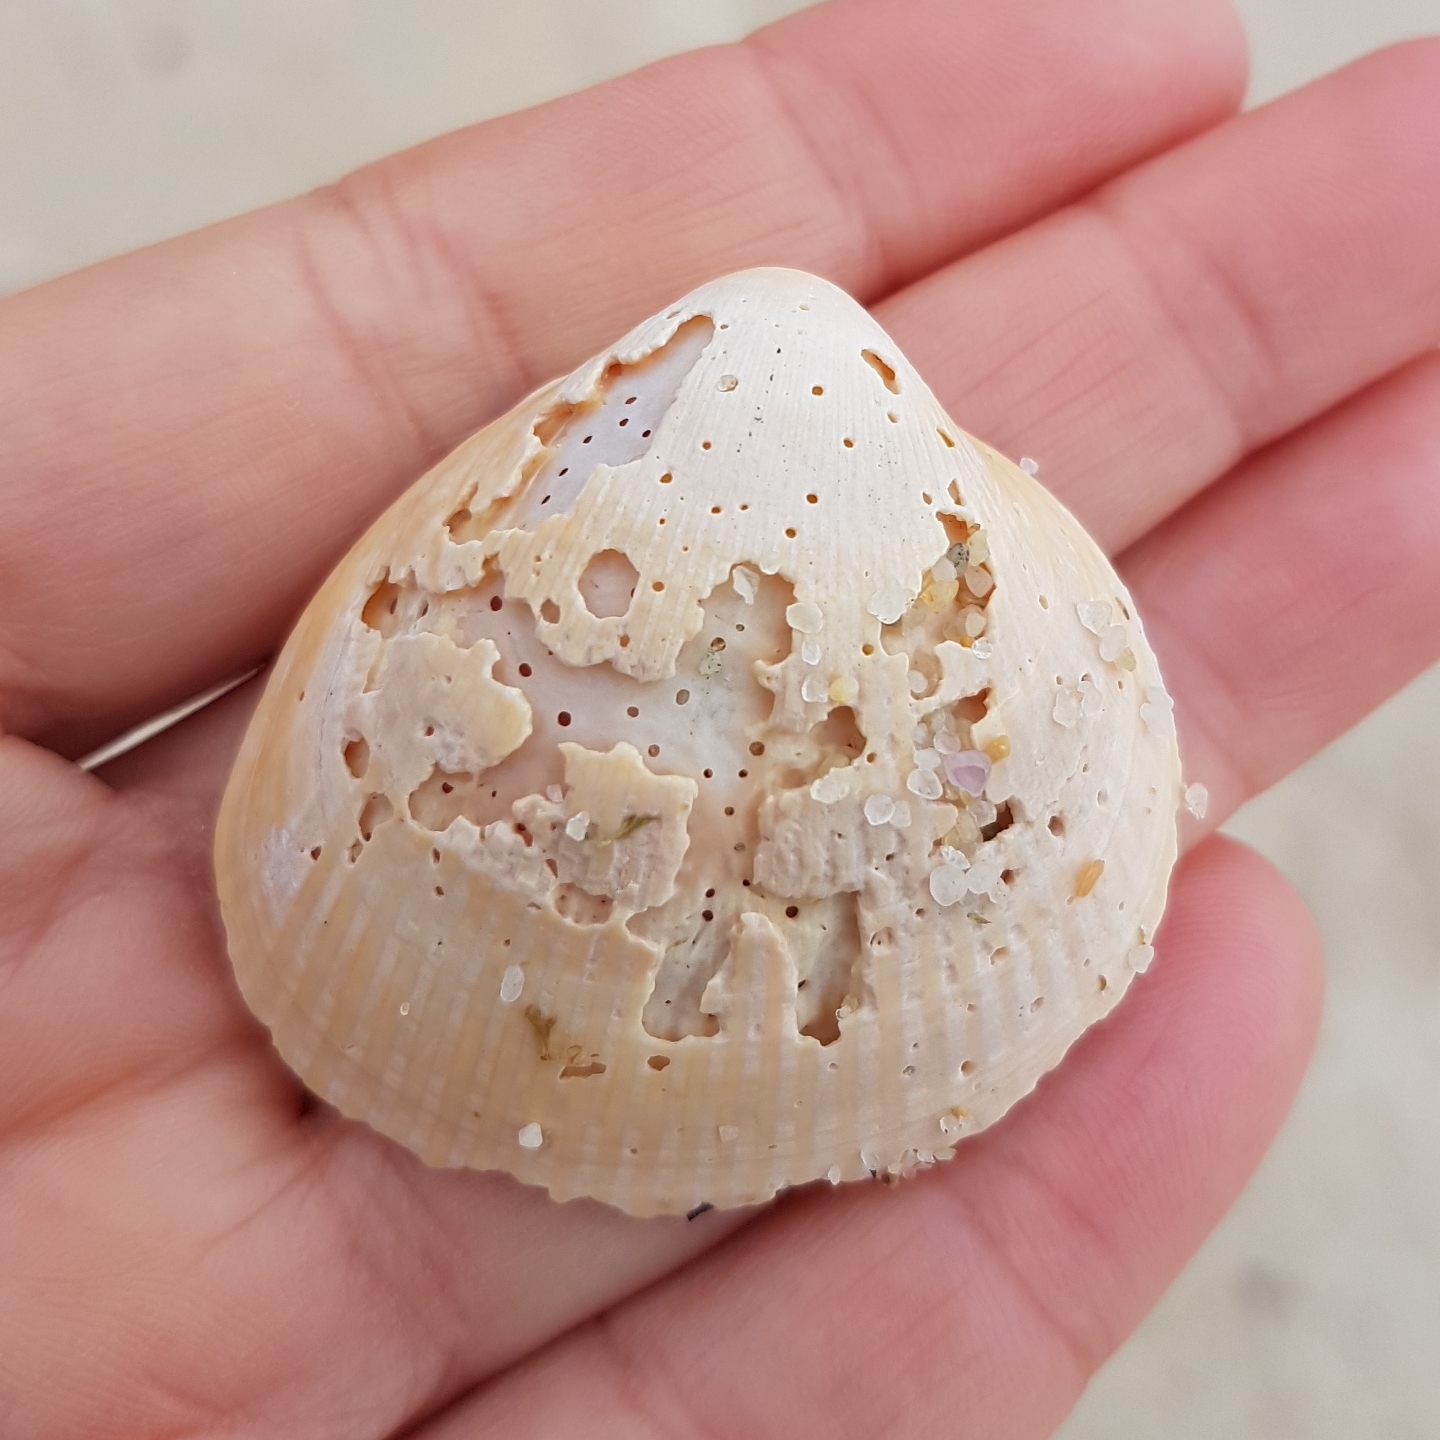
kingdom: Animalia
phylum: Mollusca
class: Bivalvia
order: Cardiida
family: Cardiidae
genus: Laevicardium
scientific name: Laevicardium crassum
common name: Norway cockle
